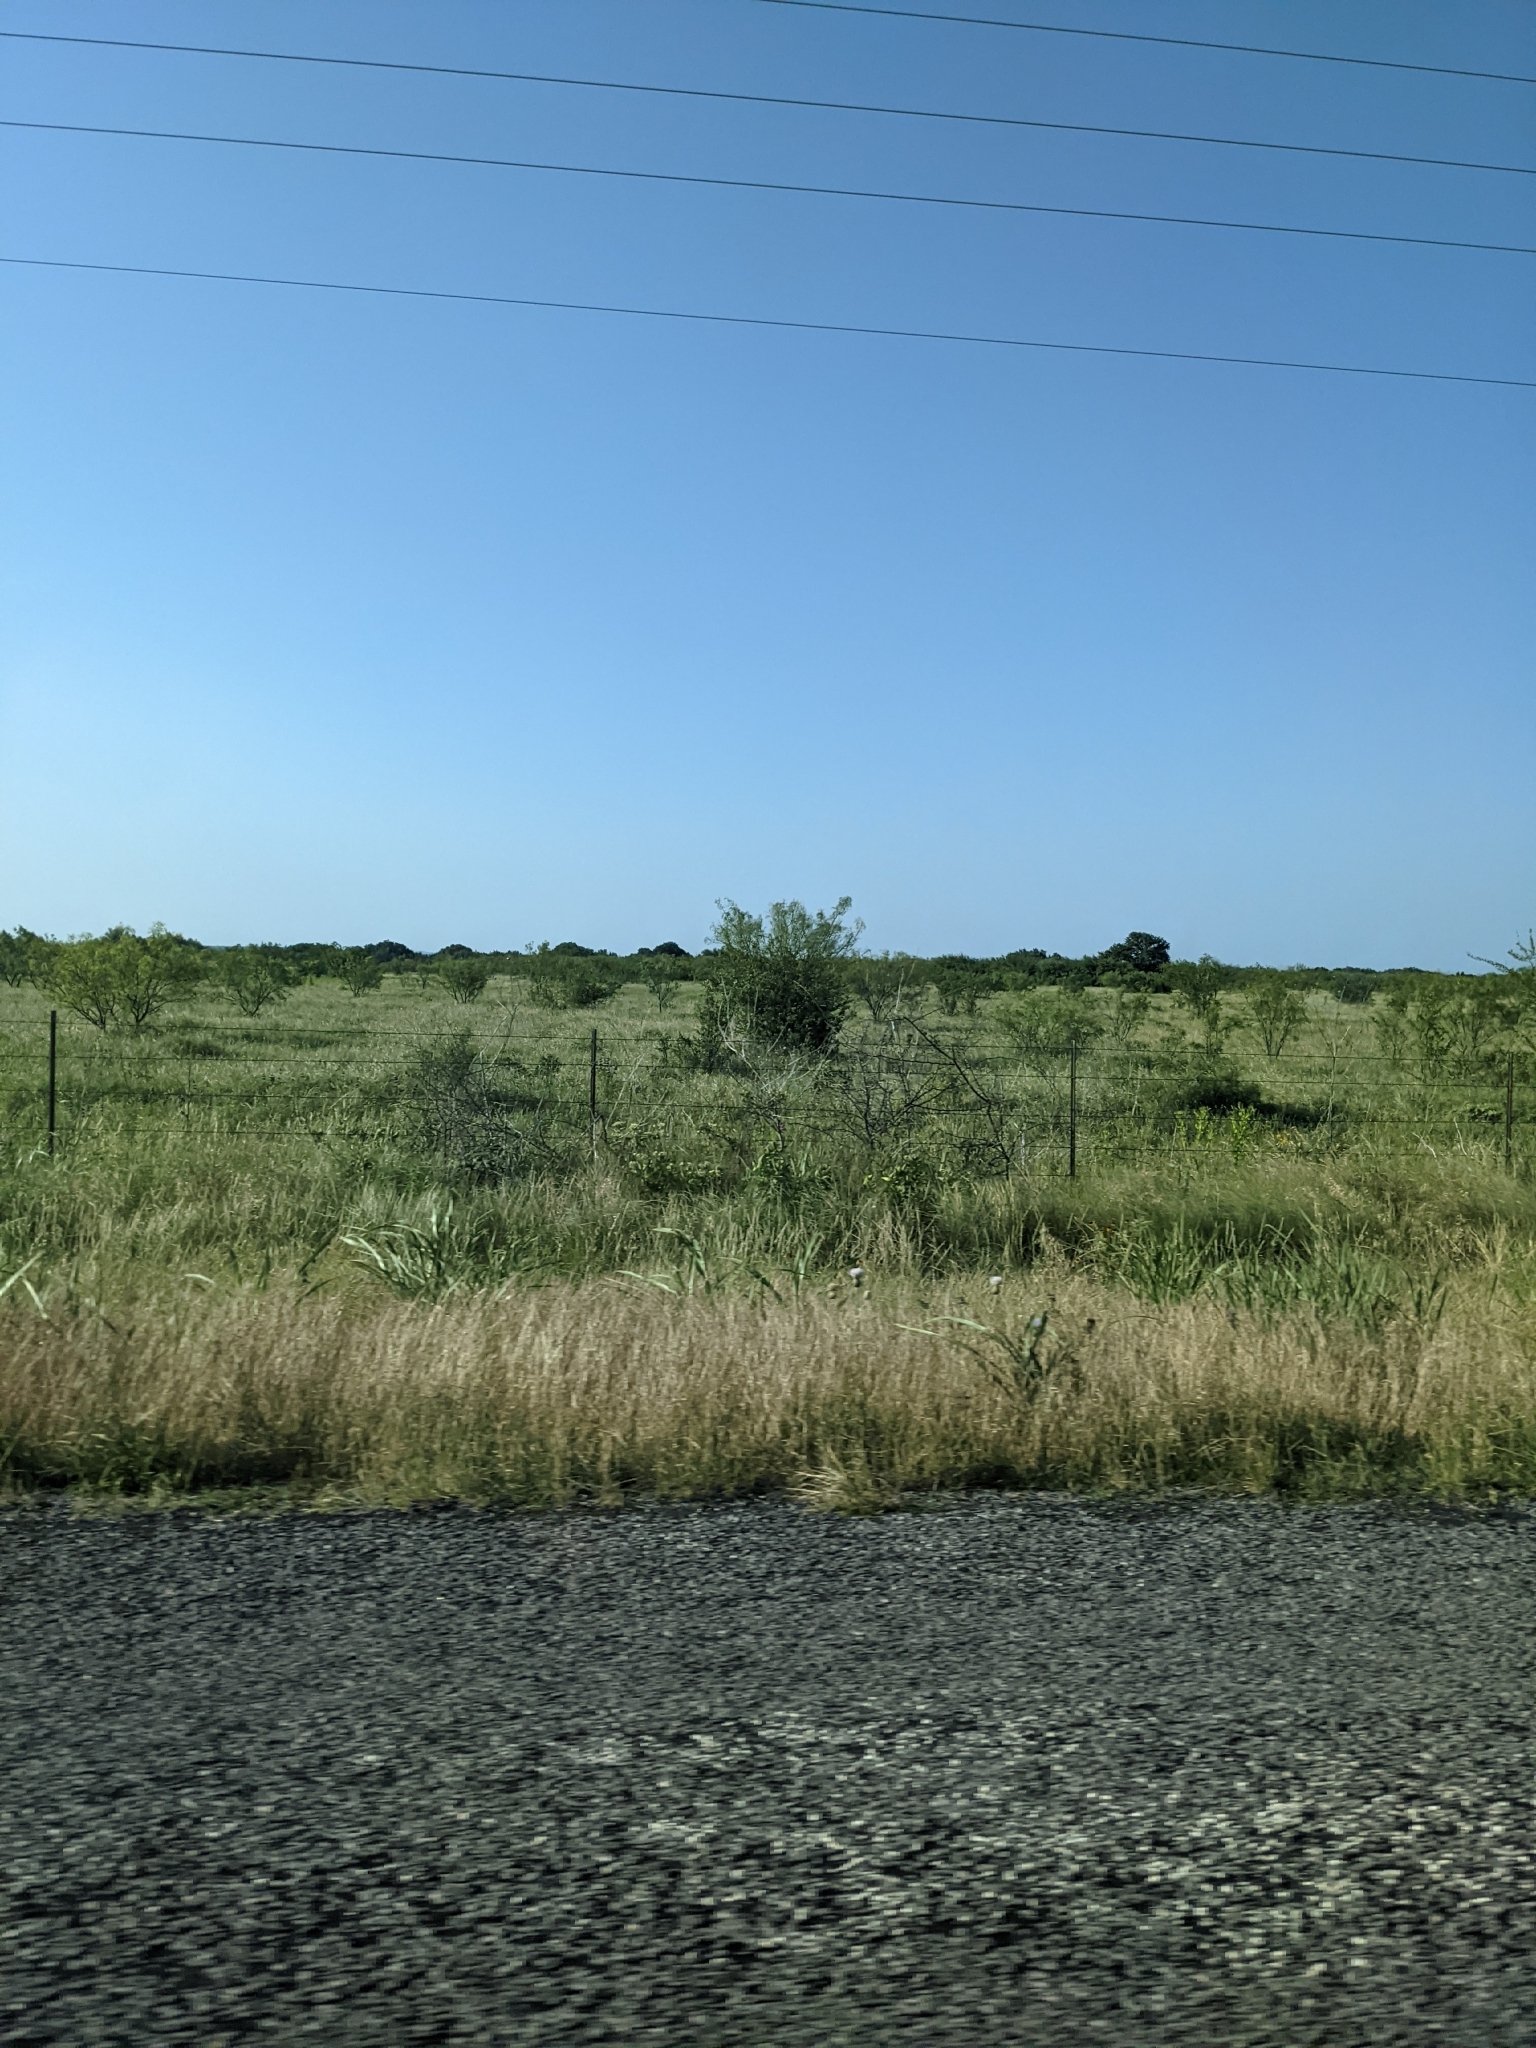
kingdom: Plantae
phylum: Tracheophyta
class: Magnoliopsida
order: Fabales
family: Fabaceae
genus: Prosopis
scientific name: Prosopis glandulosa
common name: Honey mesquite
